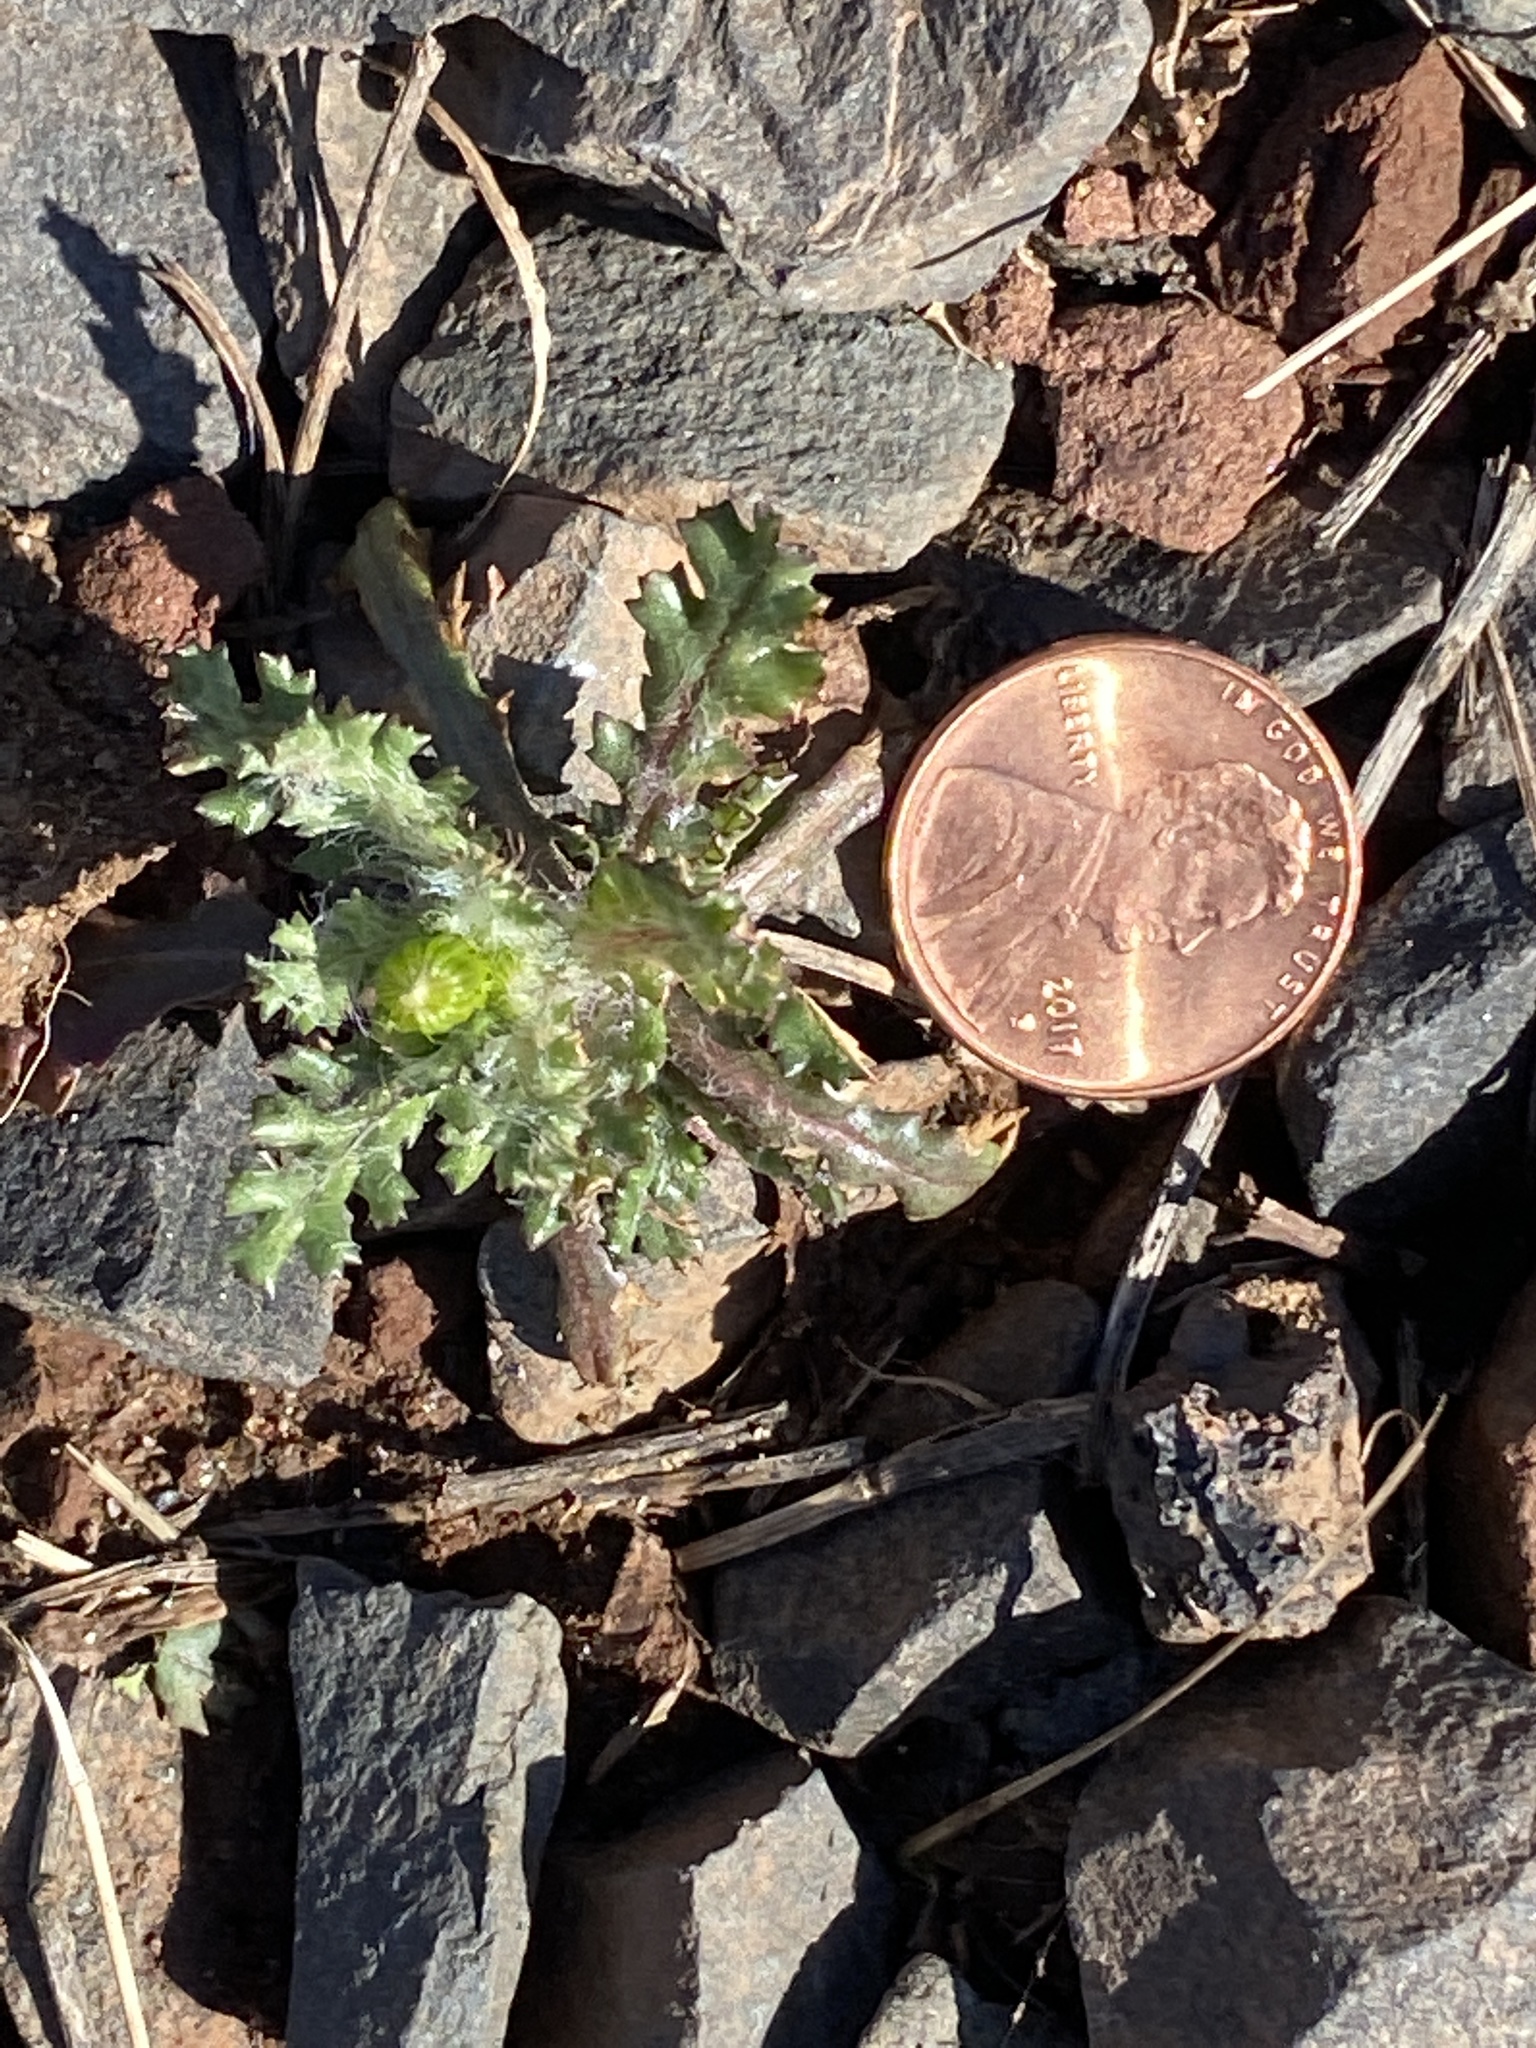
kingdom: Plantae
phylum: Tracheophyta
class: Magnoliopsida
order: Asterales
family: Asteraceae
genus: Senecio
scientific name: Senecio vulgaris
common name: Old-man-in-the-spring
